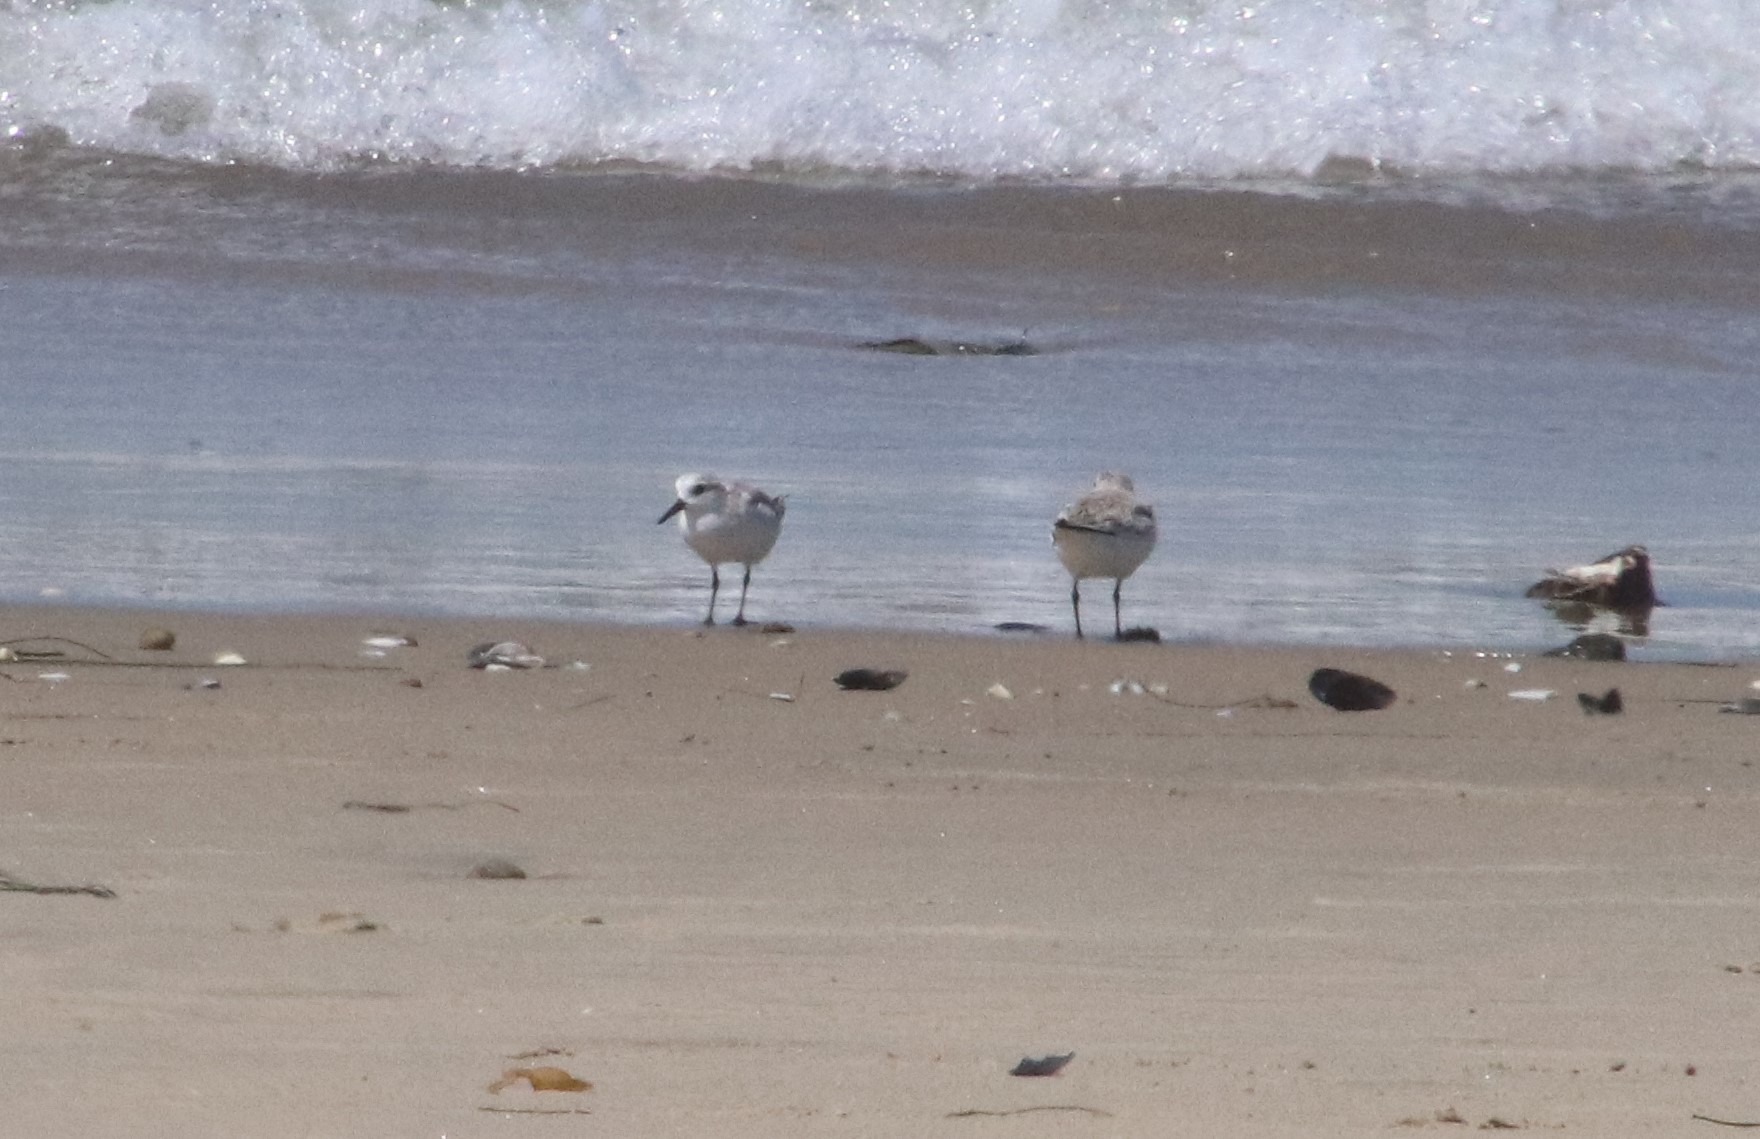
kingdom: Animalia
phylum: Chordata
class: Aves
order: Charadriiformes
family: Scolopacidae
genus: Calidris
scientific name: Calidris alba
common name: Sanderling
